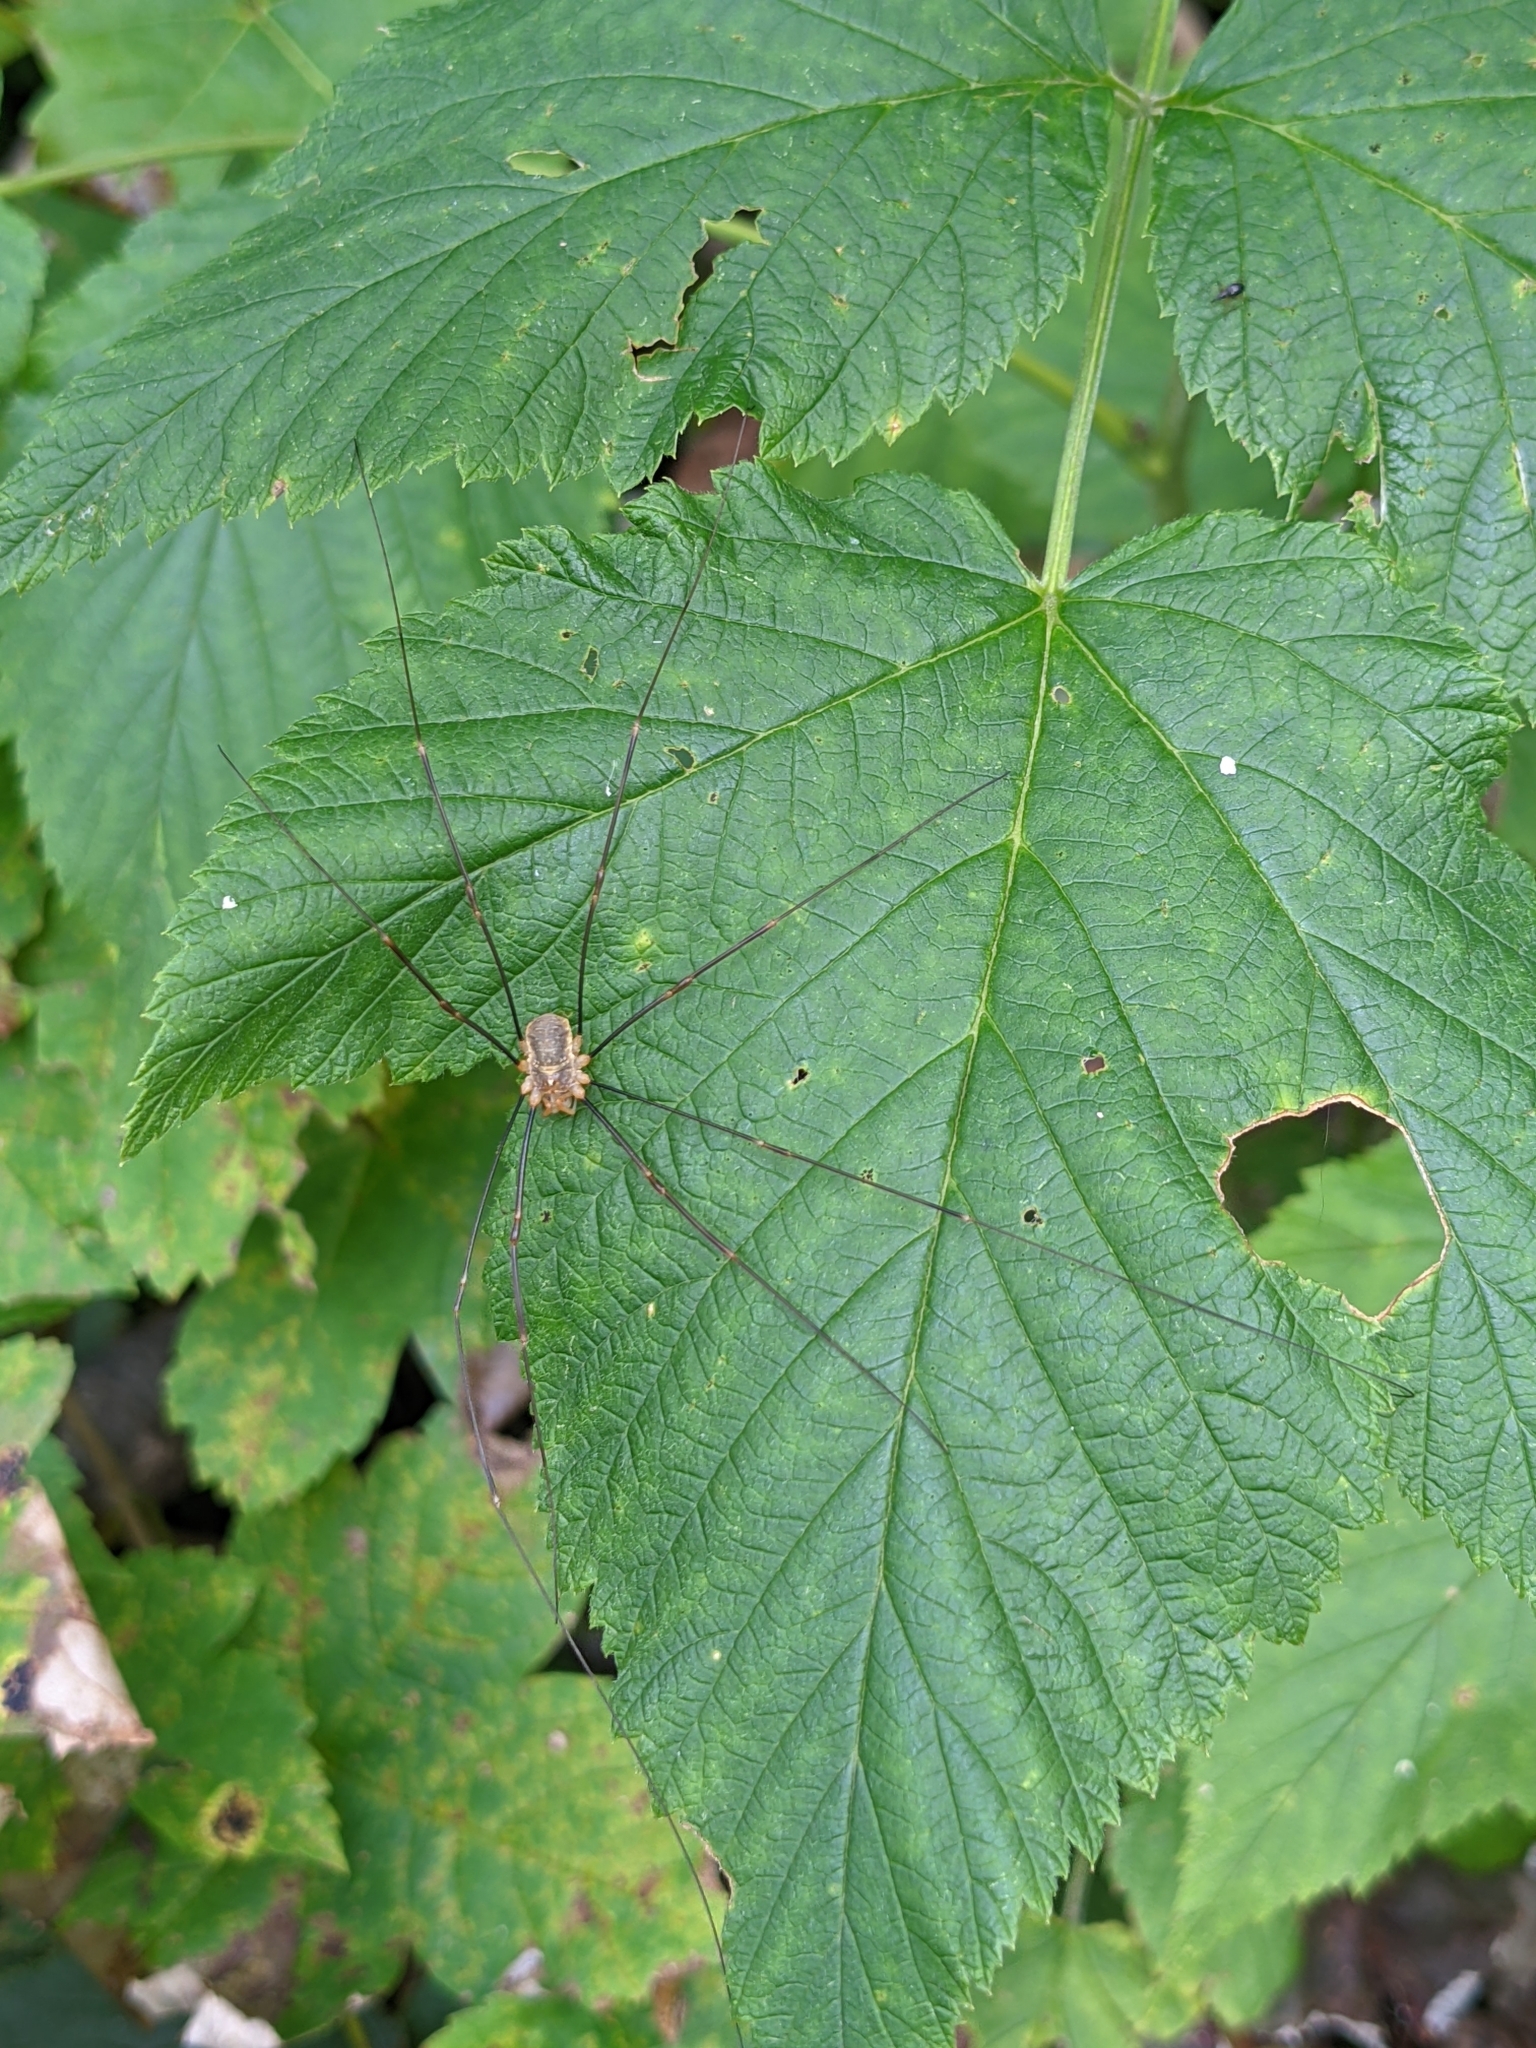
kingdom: Animalia
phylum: Arthropoda
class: Arachnida
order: Opiliones
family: Phalangiidae
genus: Opilio
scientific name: Opilio canestrinii
